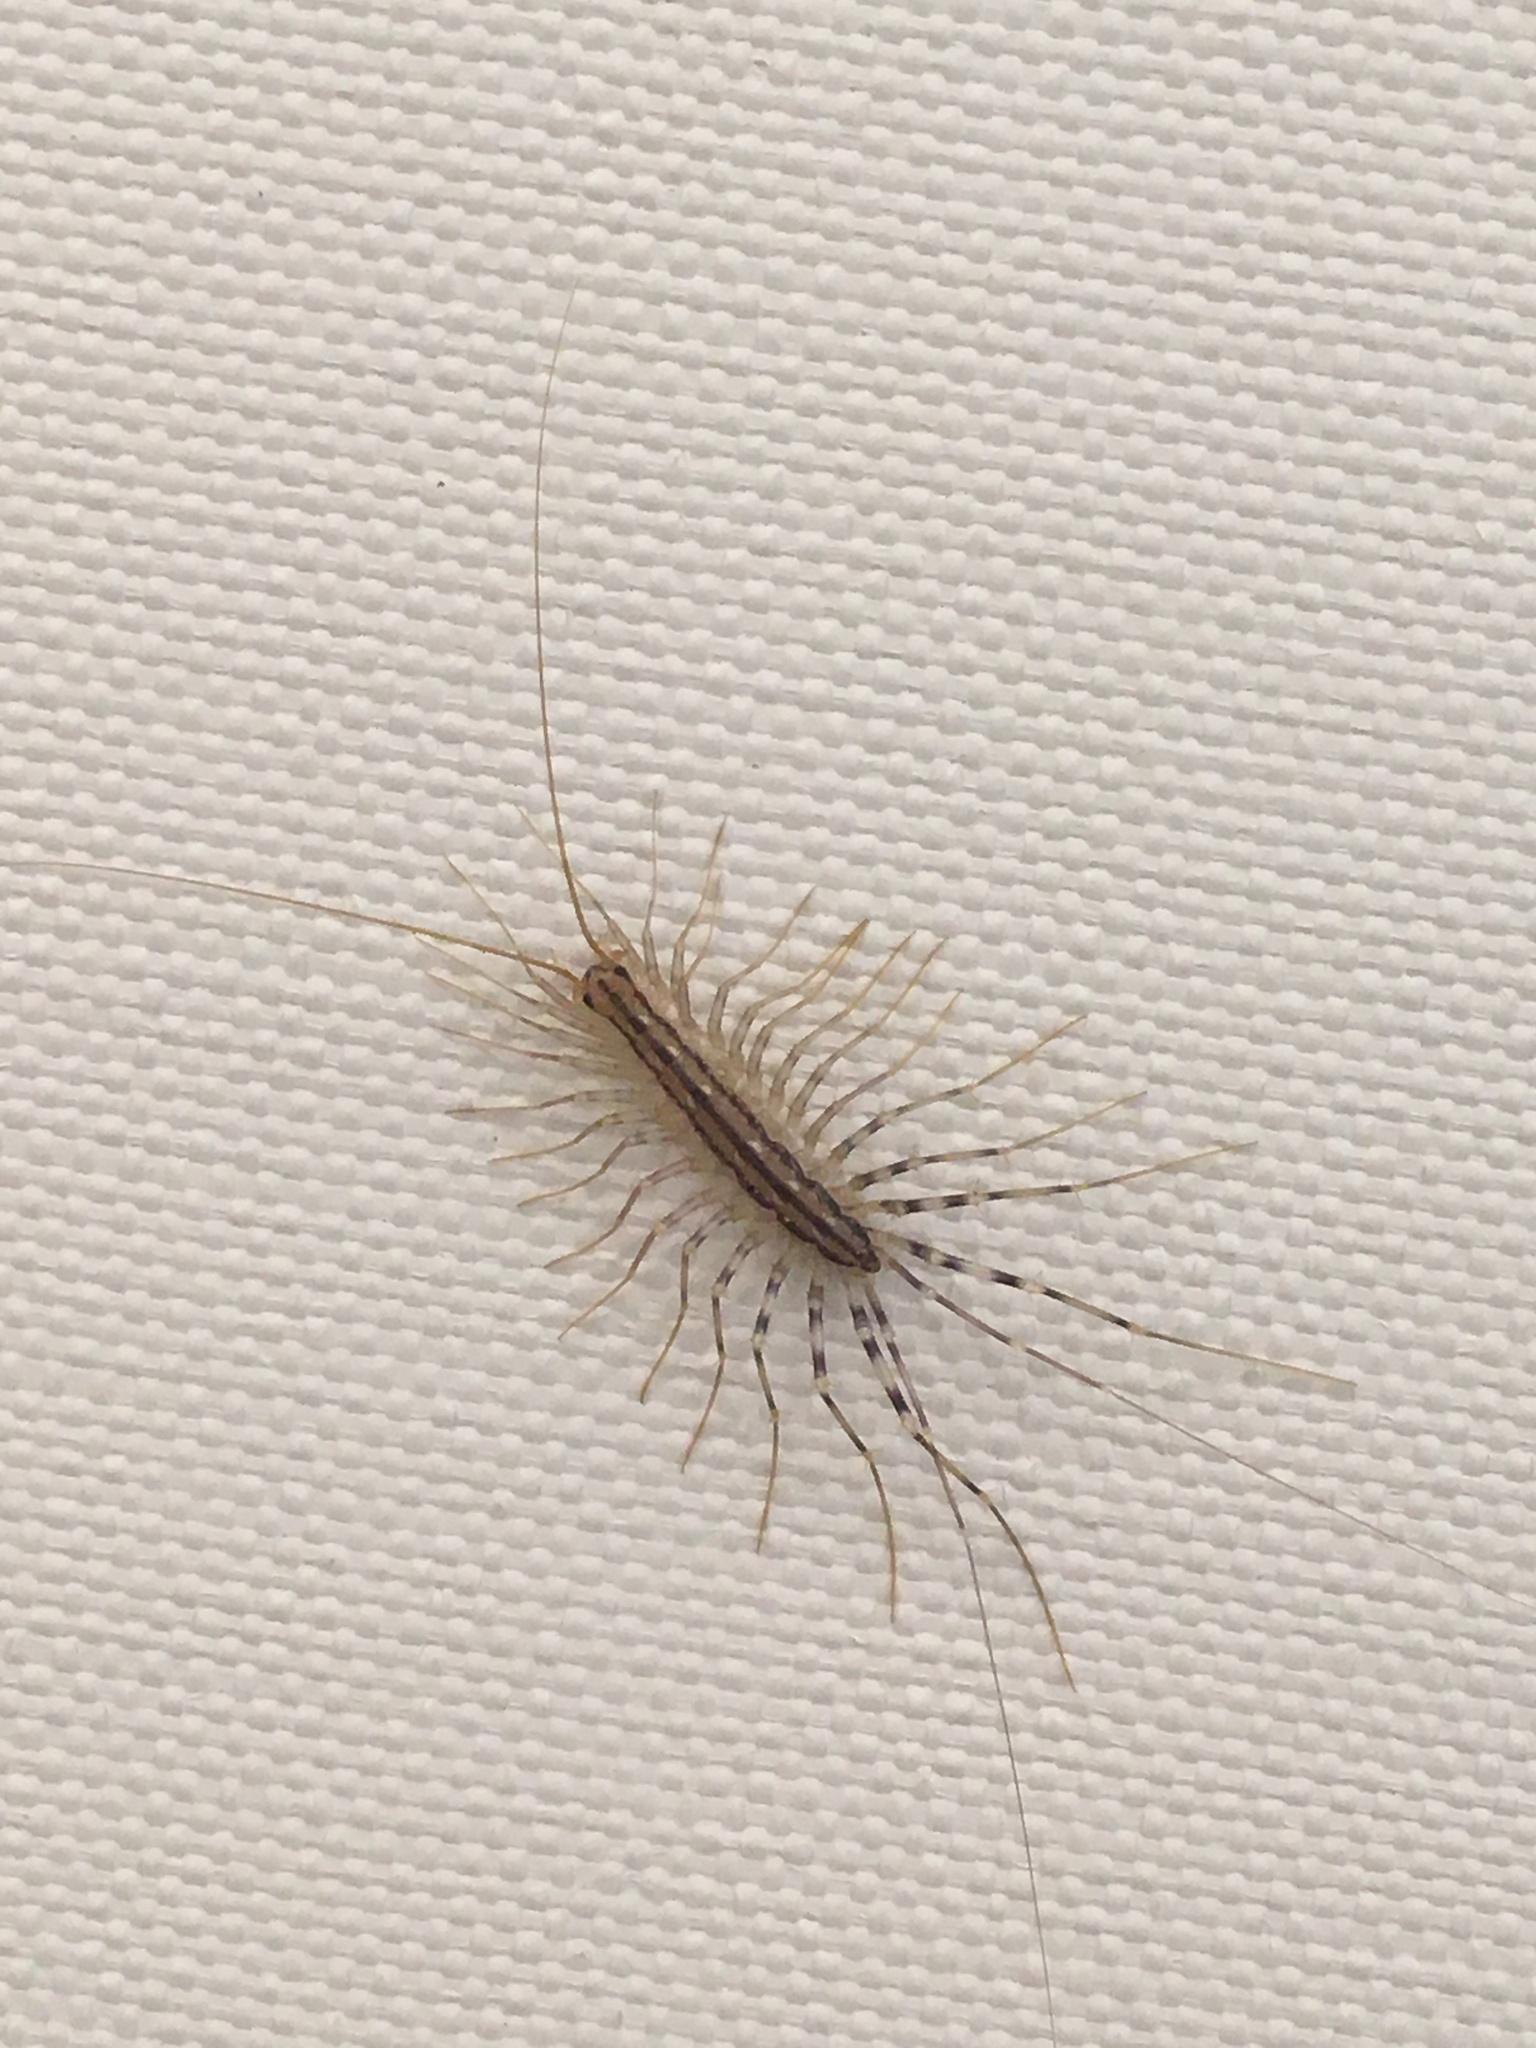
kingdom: Animalia
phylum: Arthropoda
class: Chilopoda
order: Scutigeromorpha
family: Scutigeridae
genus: Scutigera
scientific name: Scutigera coleoptrata
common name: House centipede
